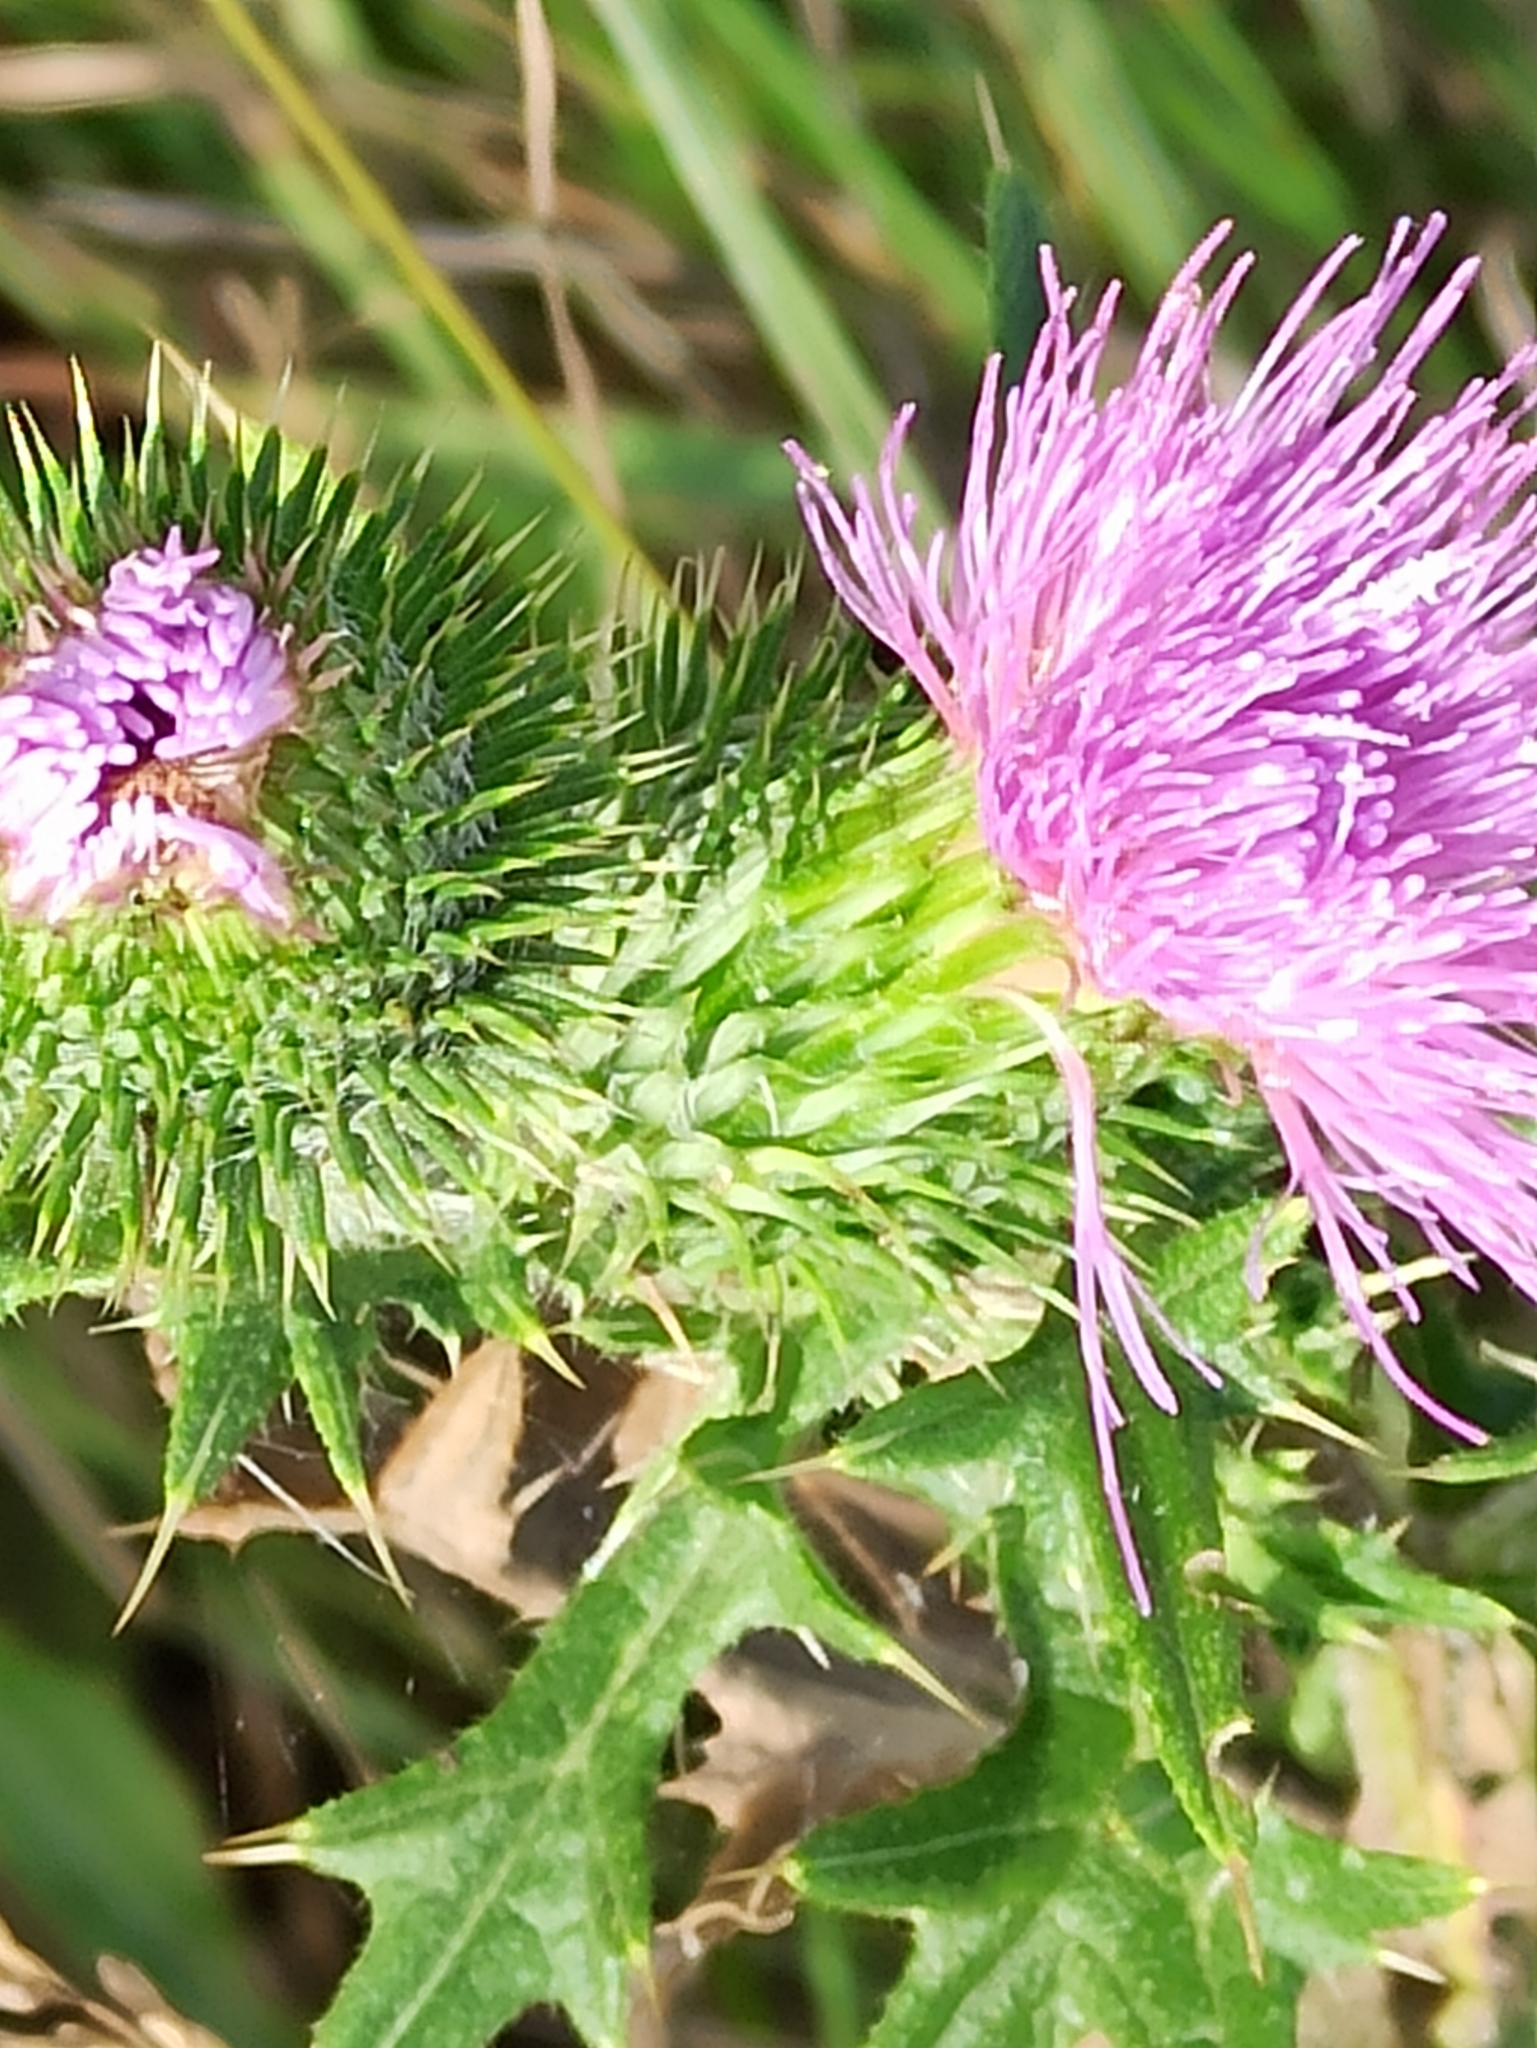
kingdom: Plantae
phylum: Tracheophyta
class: Magnoliopsida
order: Asterales
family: Asteraceae
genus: Cirsium
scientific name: Cirsium vulgare
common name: Bull thistle
